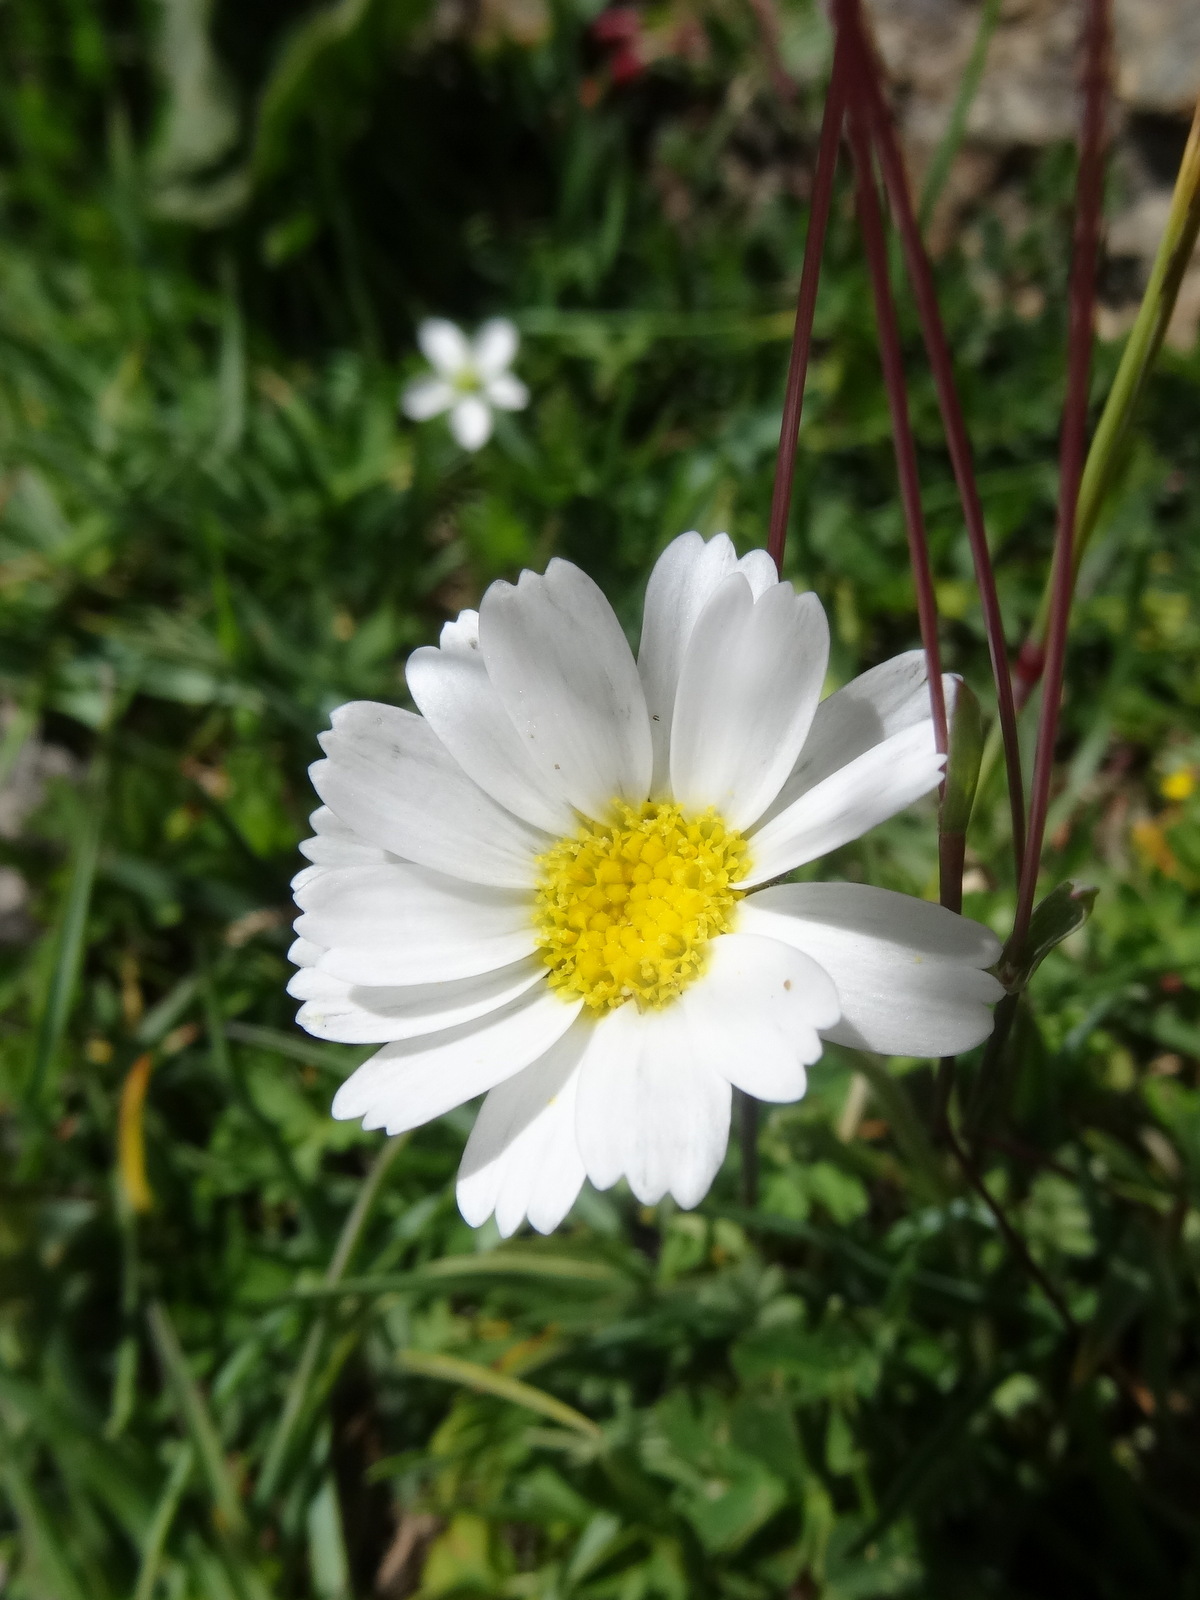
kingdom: Plantae
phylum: Tracheophyta
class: Magnoliopsida
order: Asterales
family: Asteraceae
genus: Leucanthemopsis
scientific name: Leucanthemopsis alpina
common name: Alpine moon daisy
